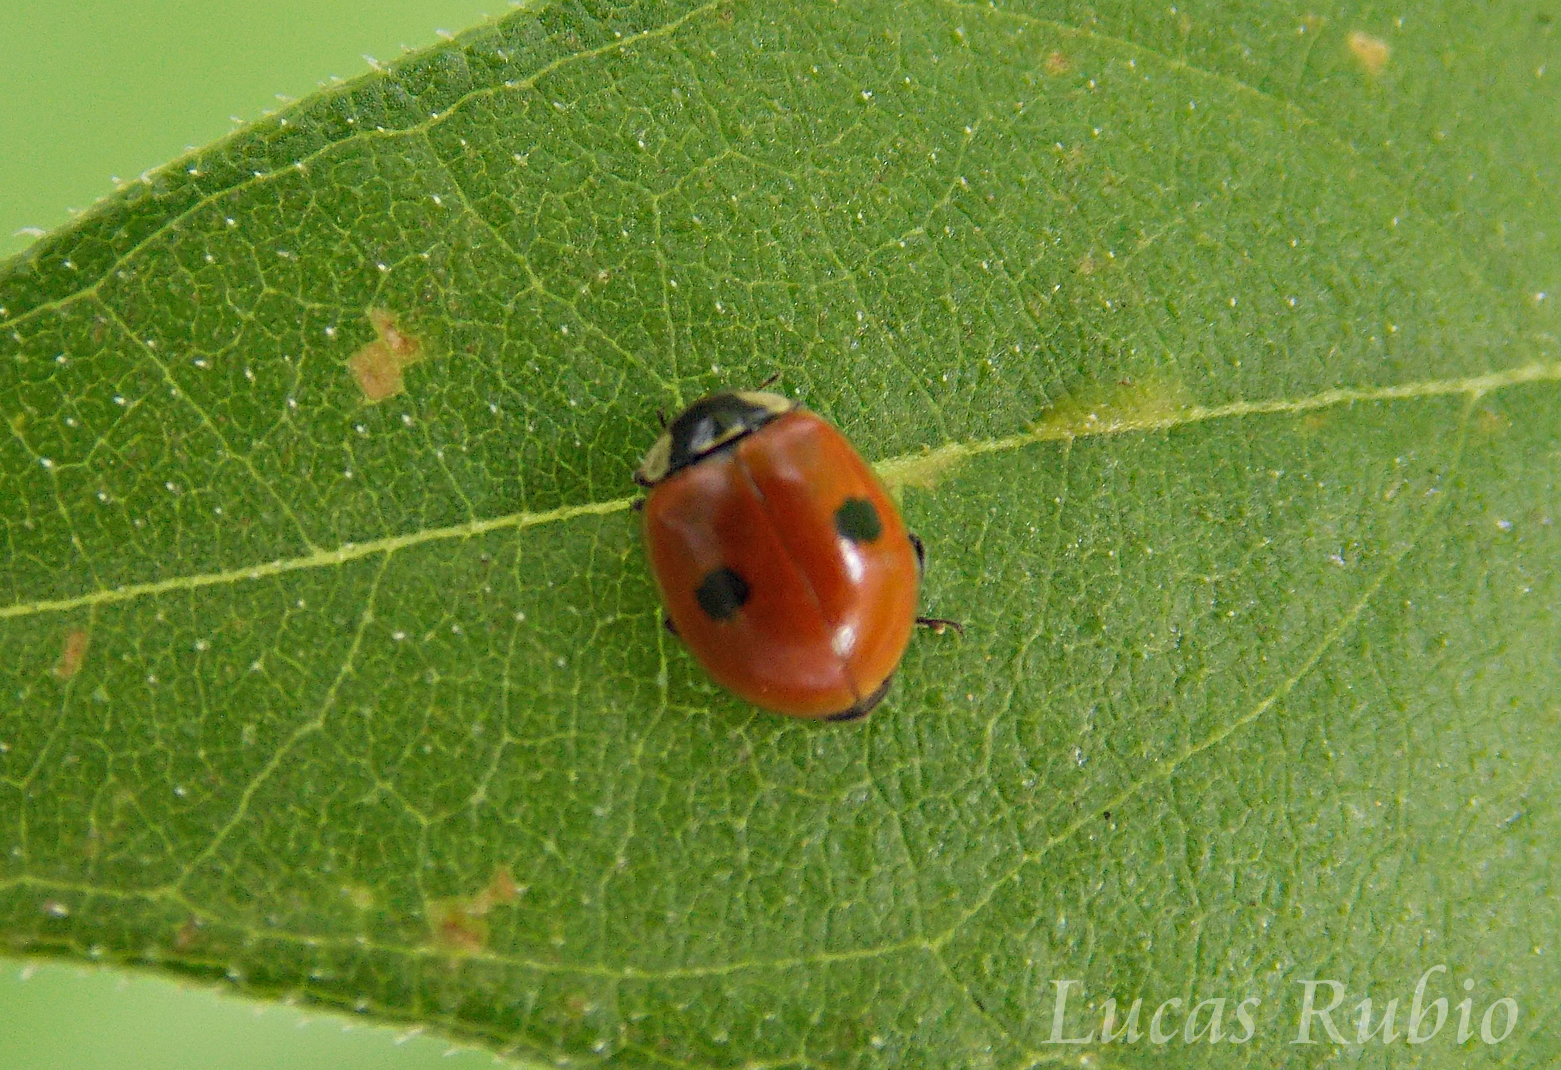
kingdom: Animalia
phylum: Arthropoda
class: Insecta
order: Coleoptera
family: Coccinellidae
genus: Adalia
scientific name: Adalia bipunctata
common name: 2-spot ladybird
